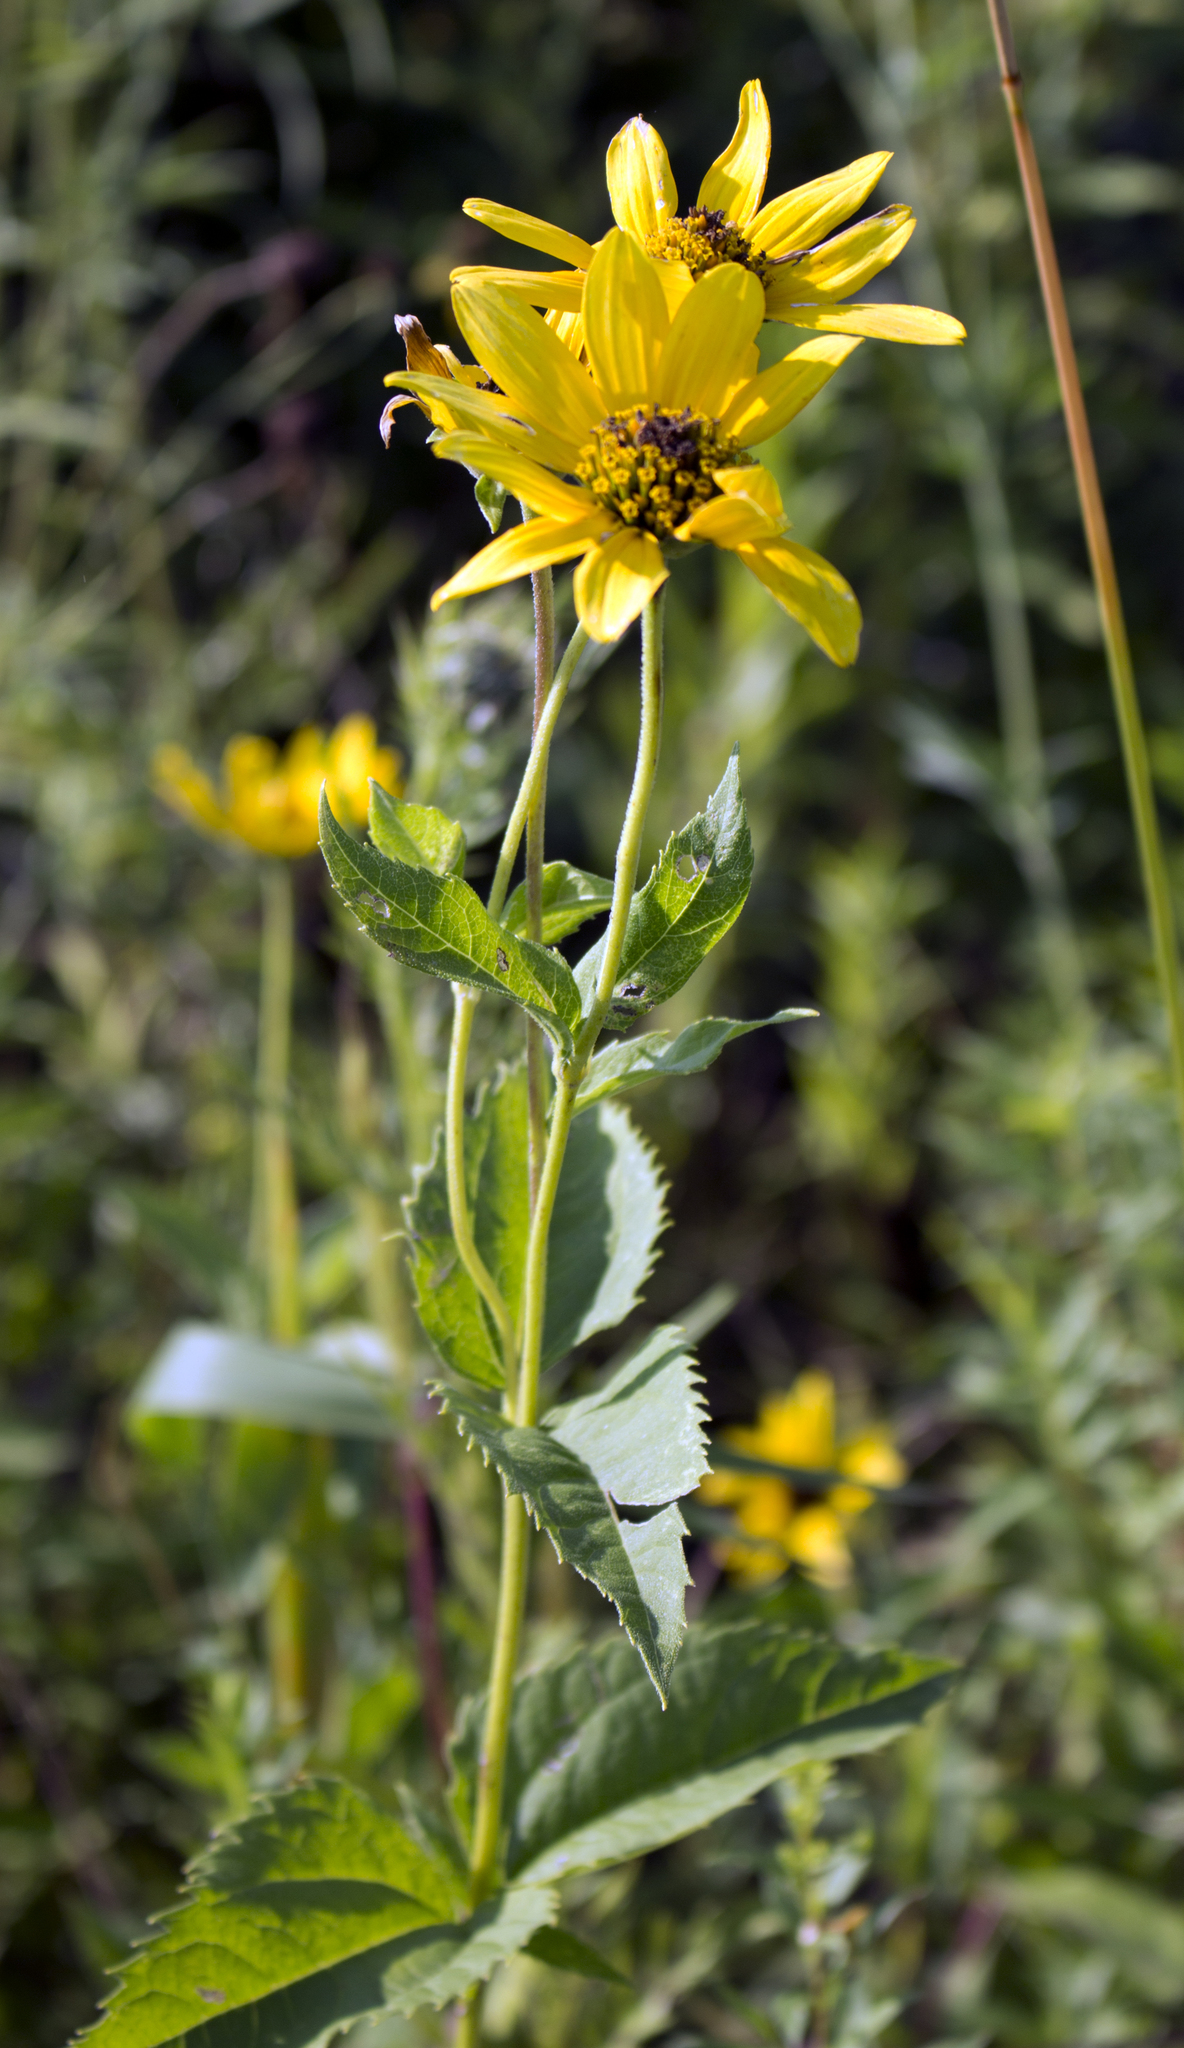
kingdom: Plantae
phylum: Tracheophyta
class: Magnoliopsida
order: Asterales
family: Asteraceae
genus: Heliopsis
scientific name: Heliopsis helianthoides
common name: False sunflower
